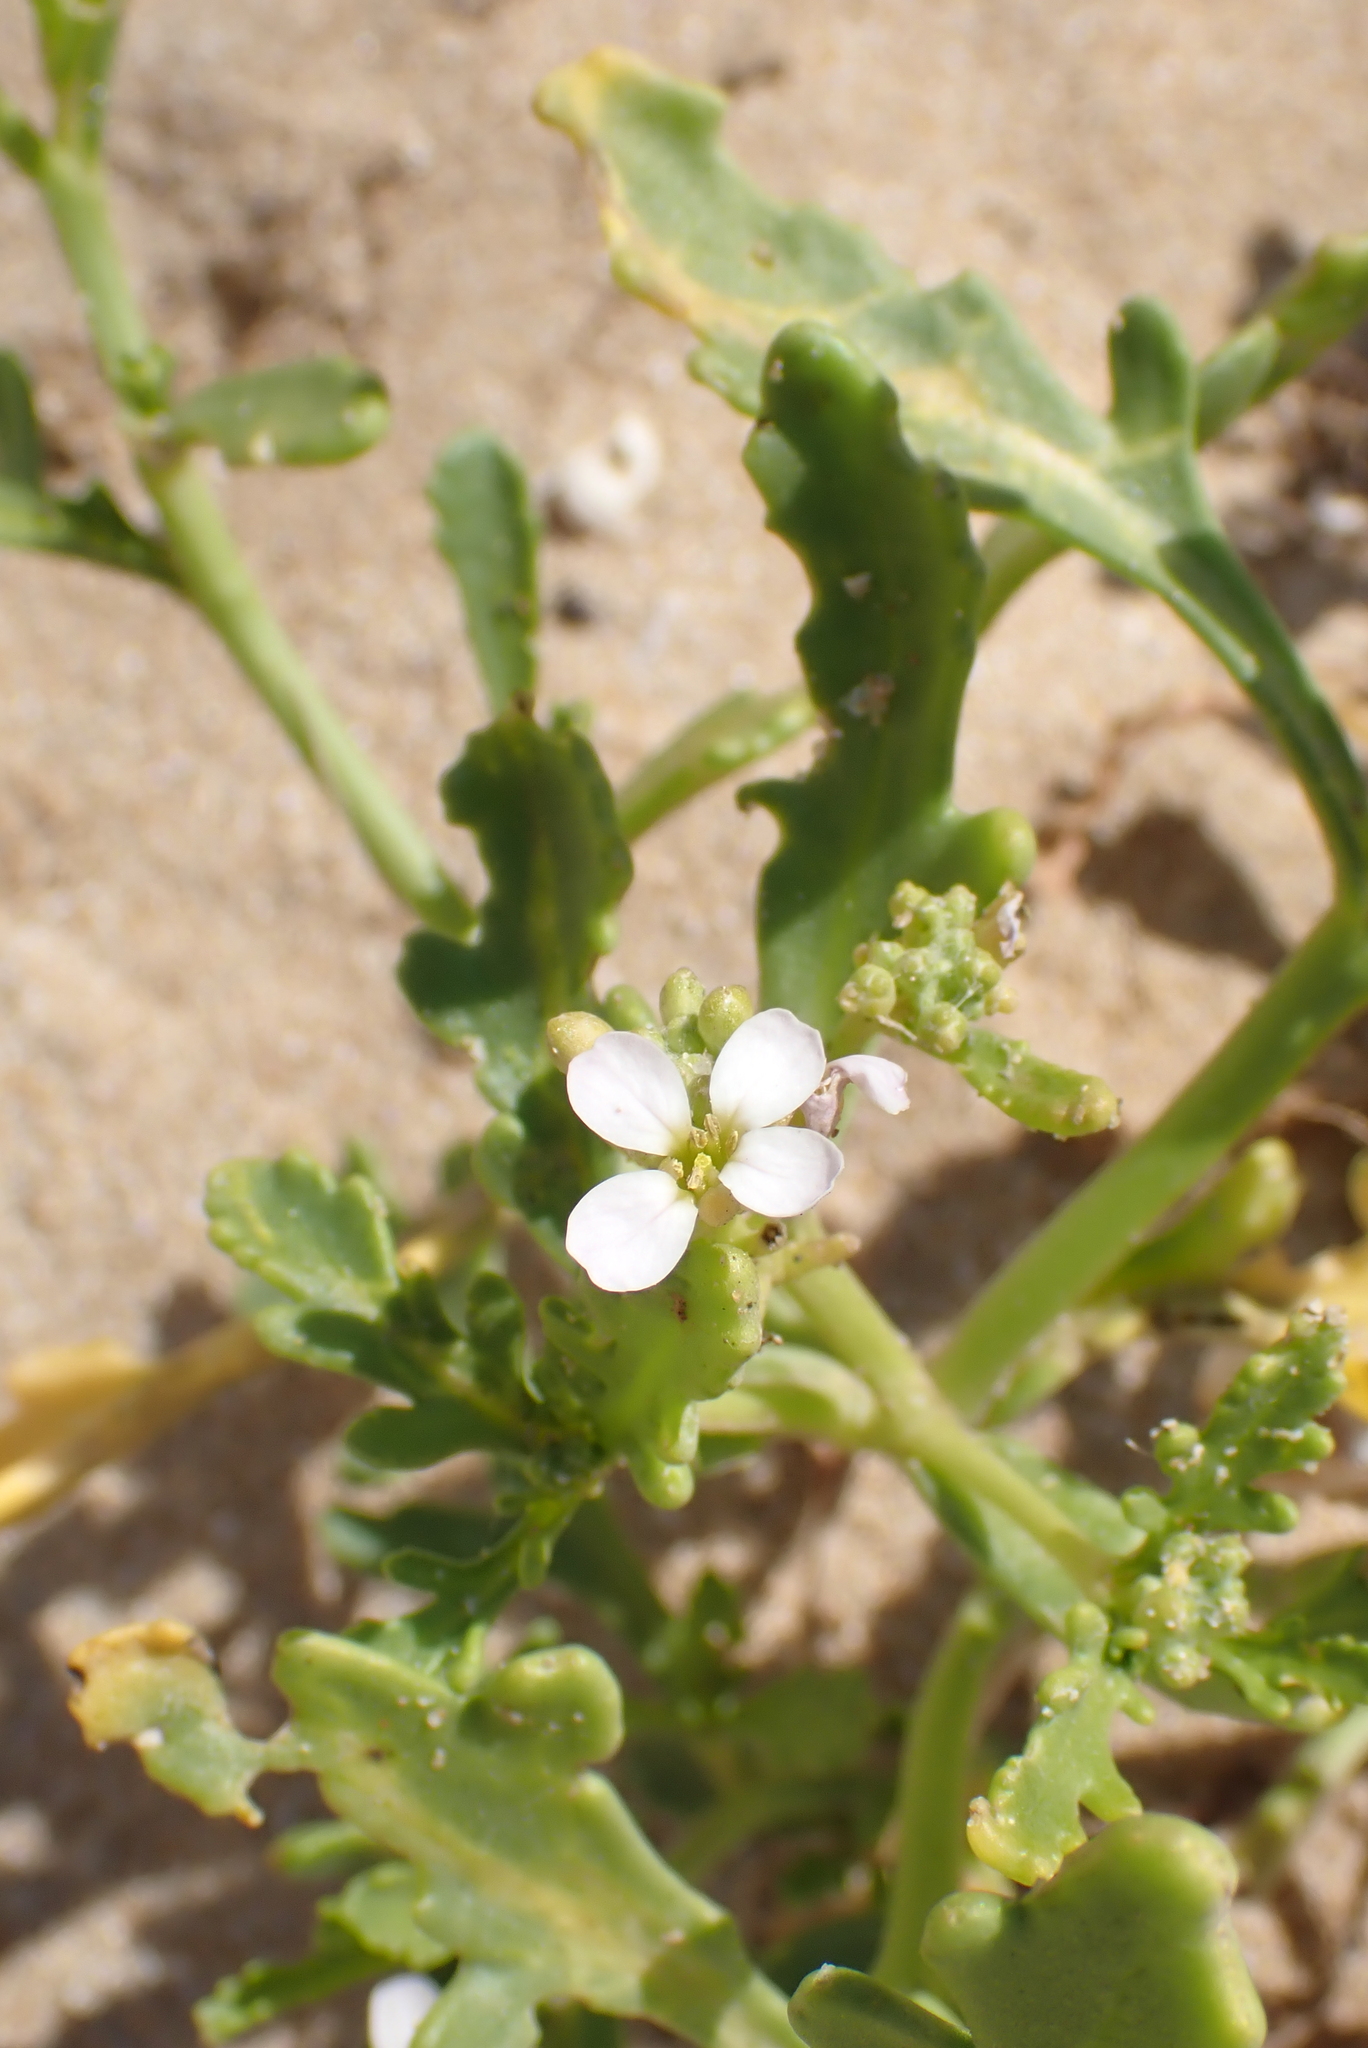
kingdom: Plantae
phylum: Tracheophyta
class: Magnoliopsida
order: Brassicales
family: Brassicaceae
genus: Cakile
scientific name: Cakile maritima
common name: Sea rocket
